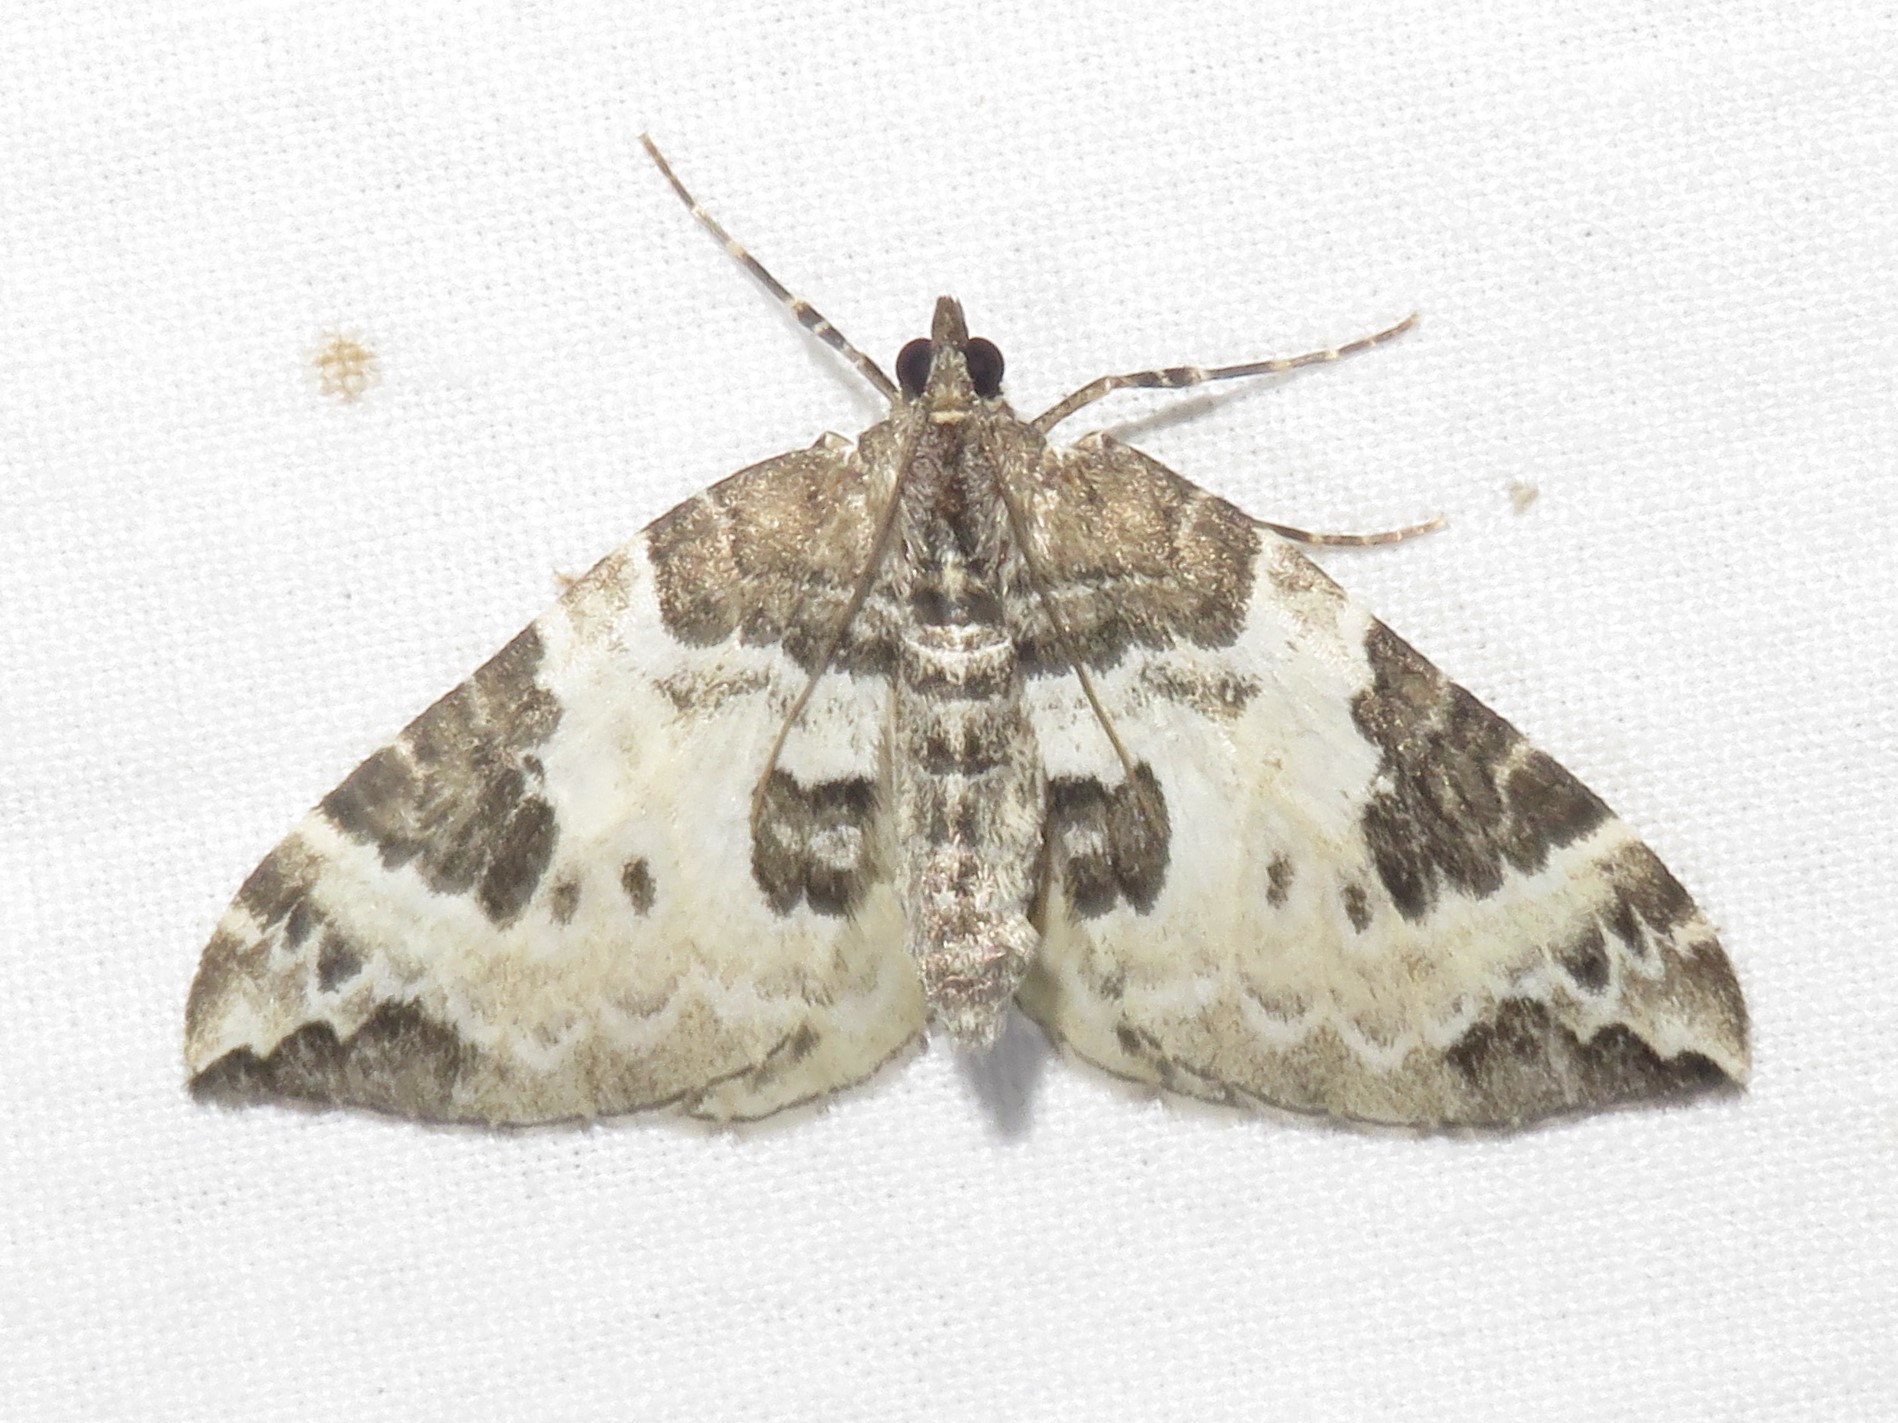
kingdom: Animalia
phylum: Arthropoda
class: Insecta
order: Lepidoptera
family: Geometridae
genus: Eulithis
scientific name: Eulithis explanata
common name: White eulithis
